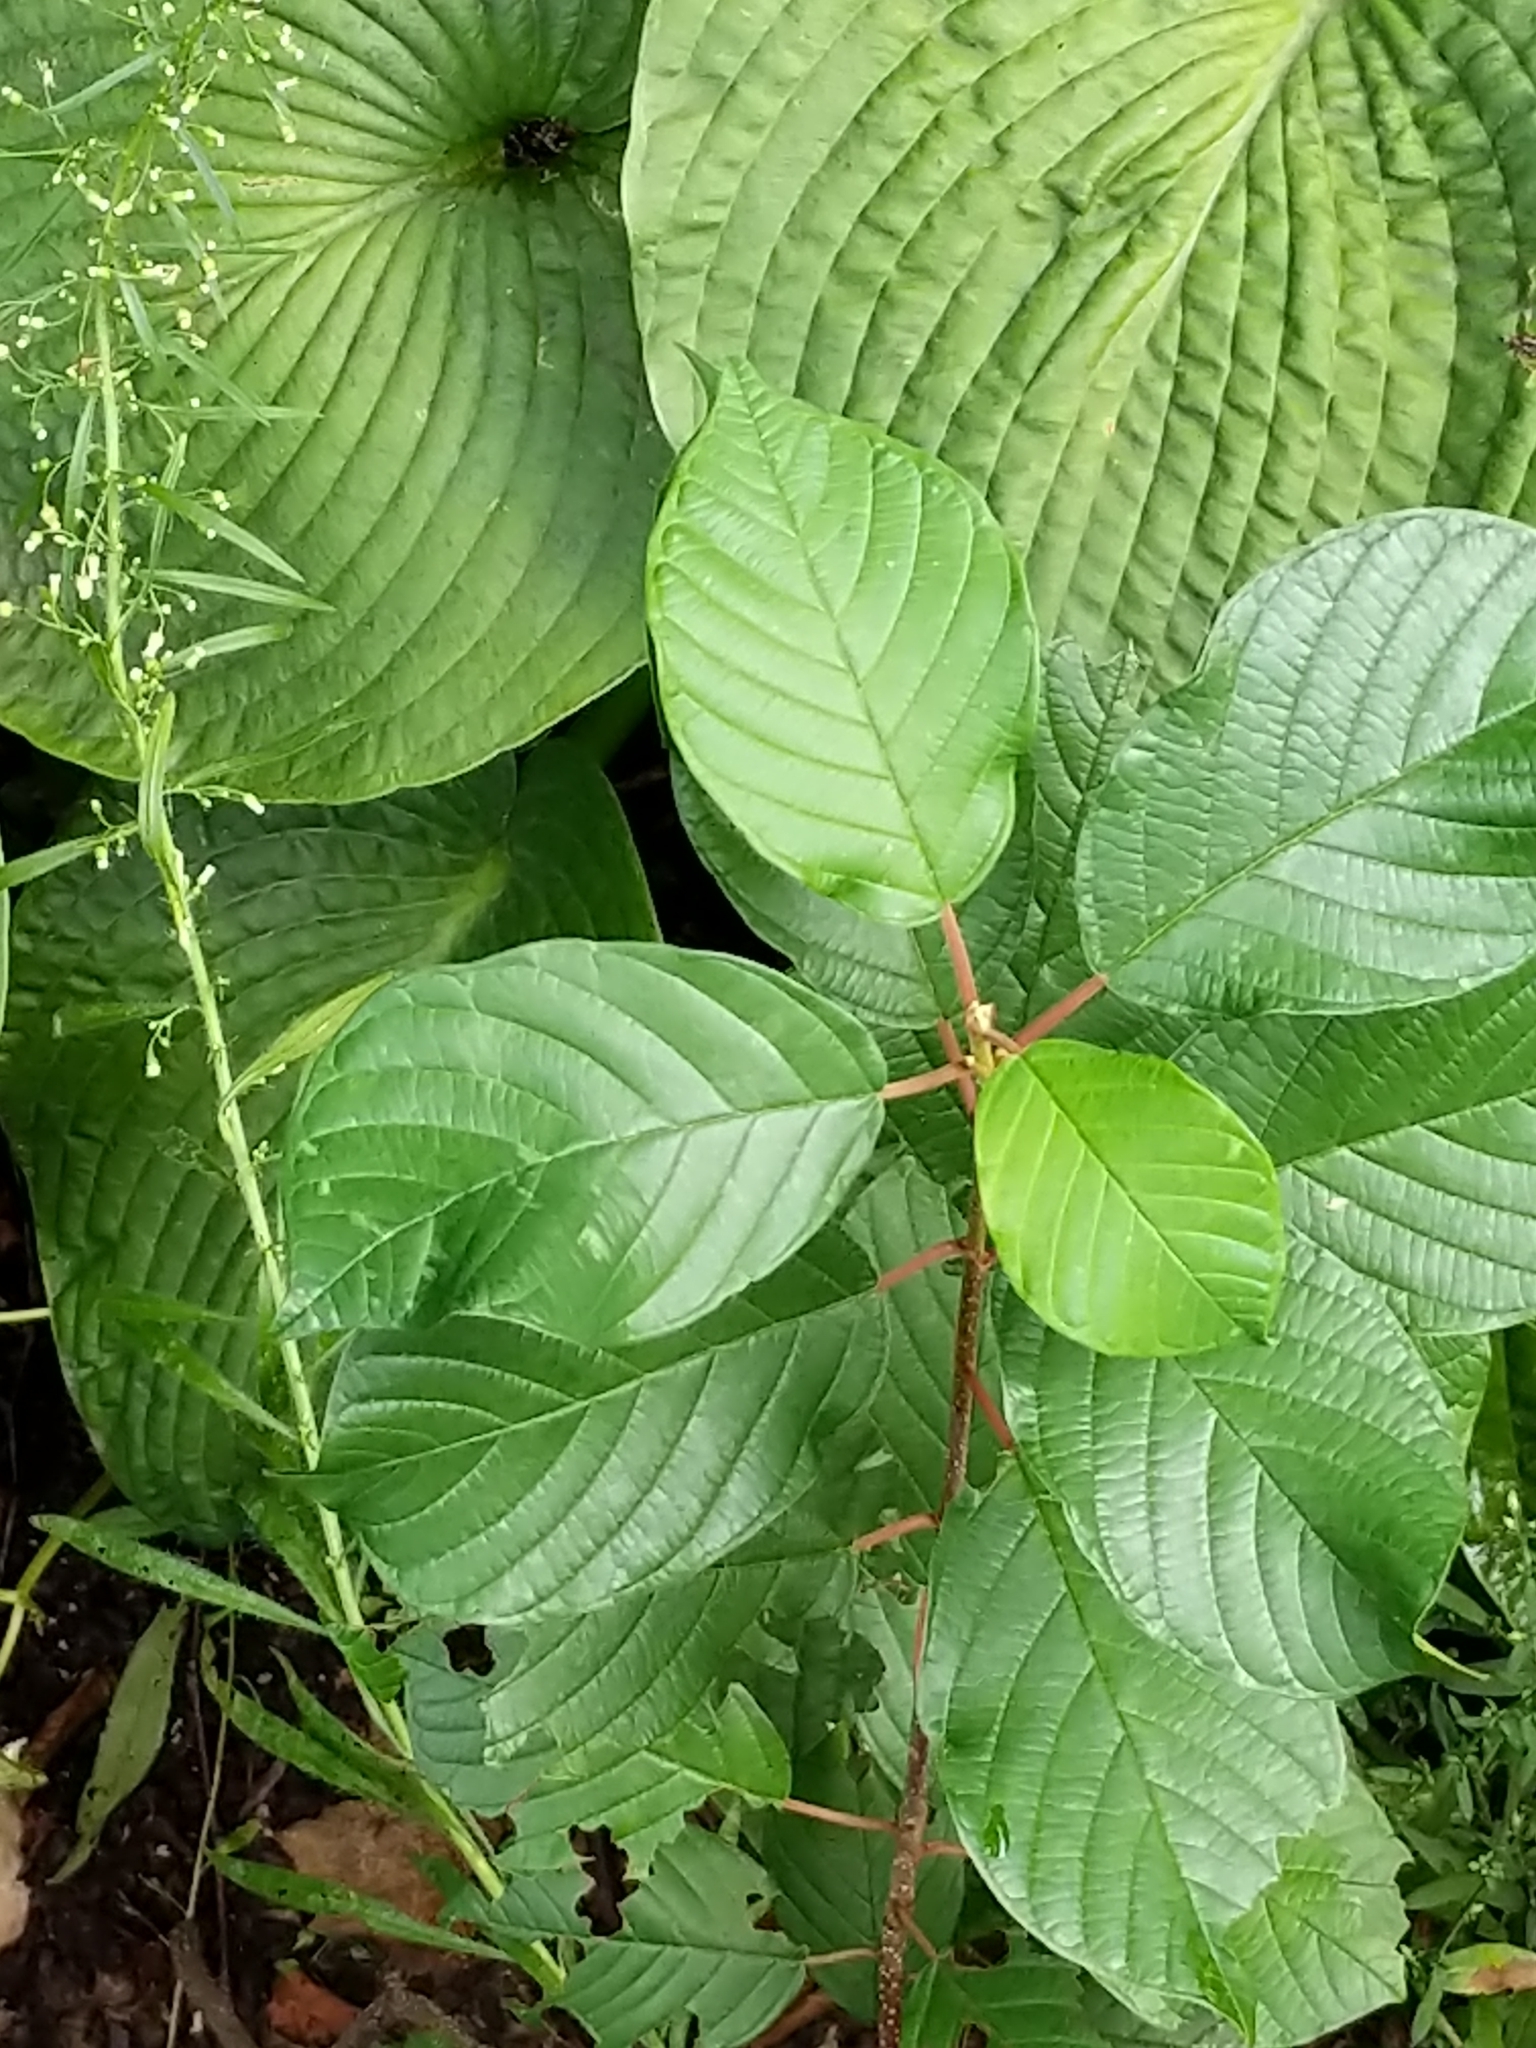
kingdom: Plantae
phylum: Tracheophyta
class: Magnoliopsida
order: Rosales
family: Rhamnaceae
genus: Frangula
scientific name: Frangula alnus
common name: Alder buckthorn
